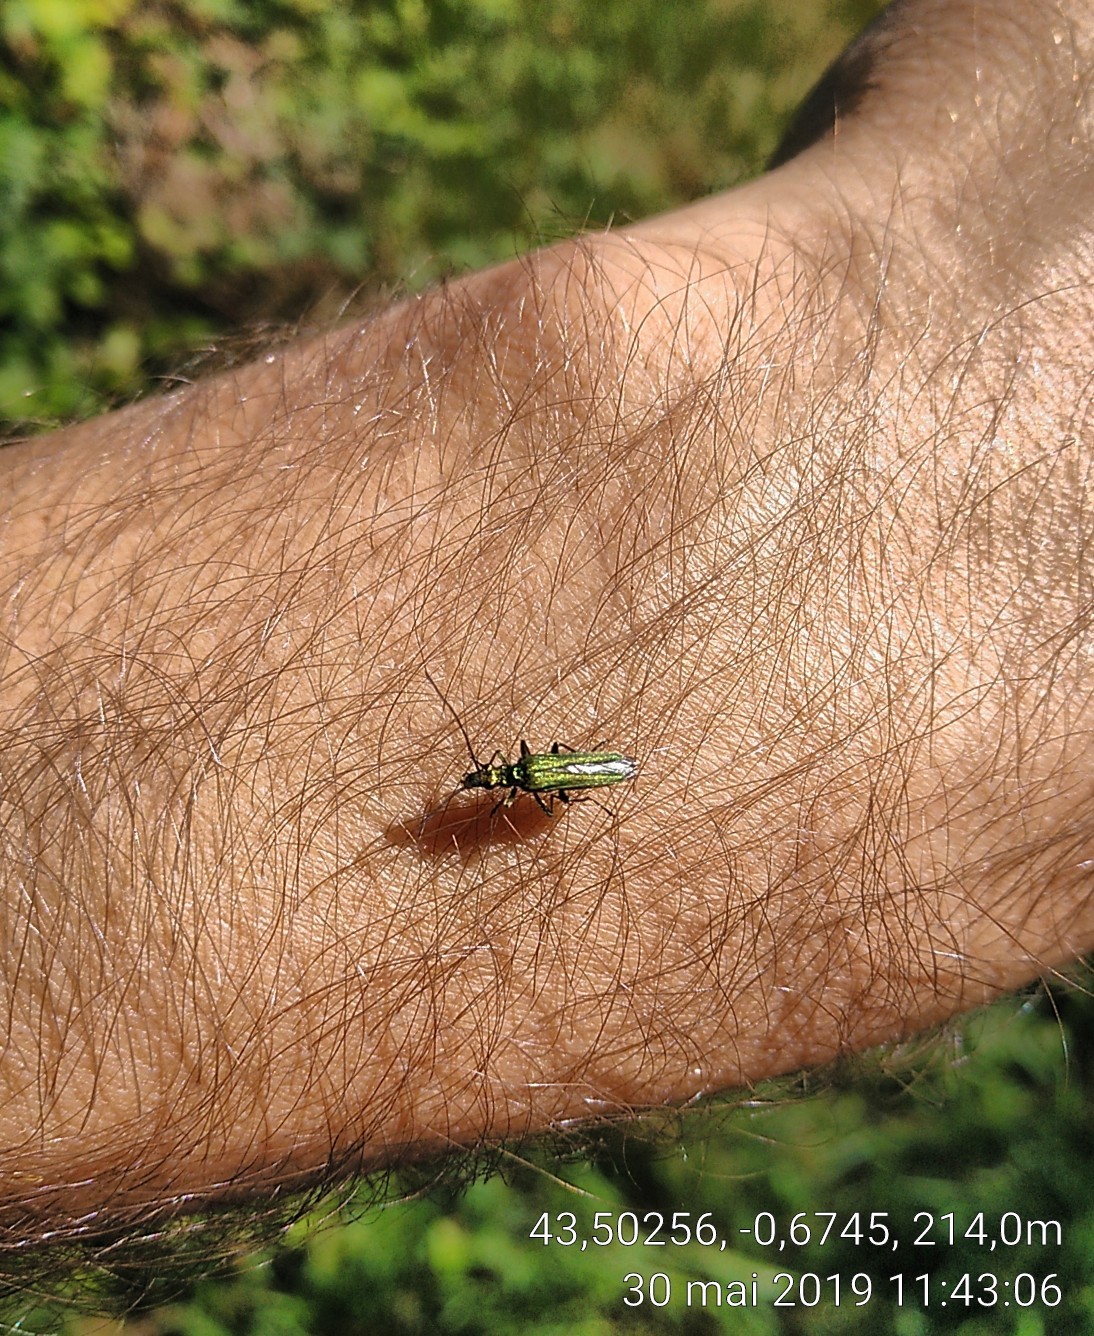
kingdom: Animalia
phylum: Arthropoda
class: Insecta
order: Coleoptera
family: Oedemeridae
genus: Oedemera
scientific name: Oedemera nobilis
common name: Swollen-thighed beetle
